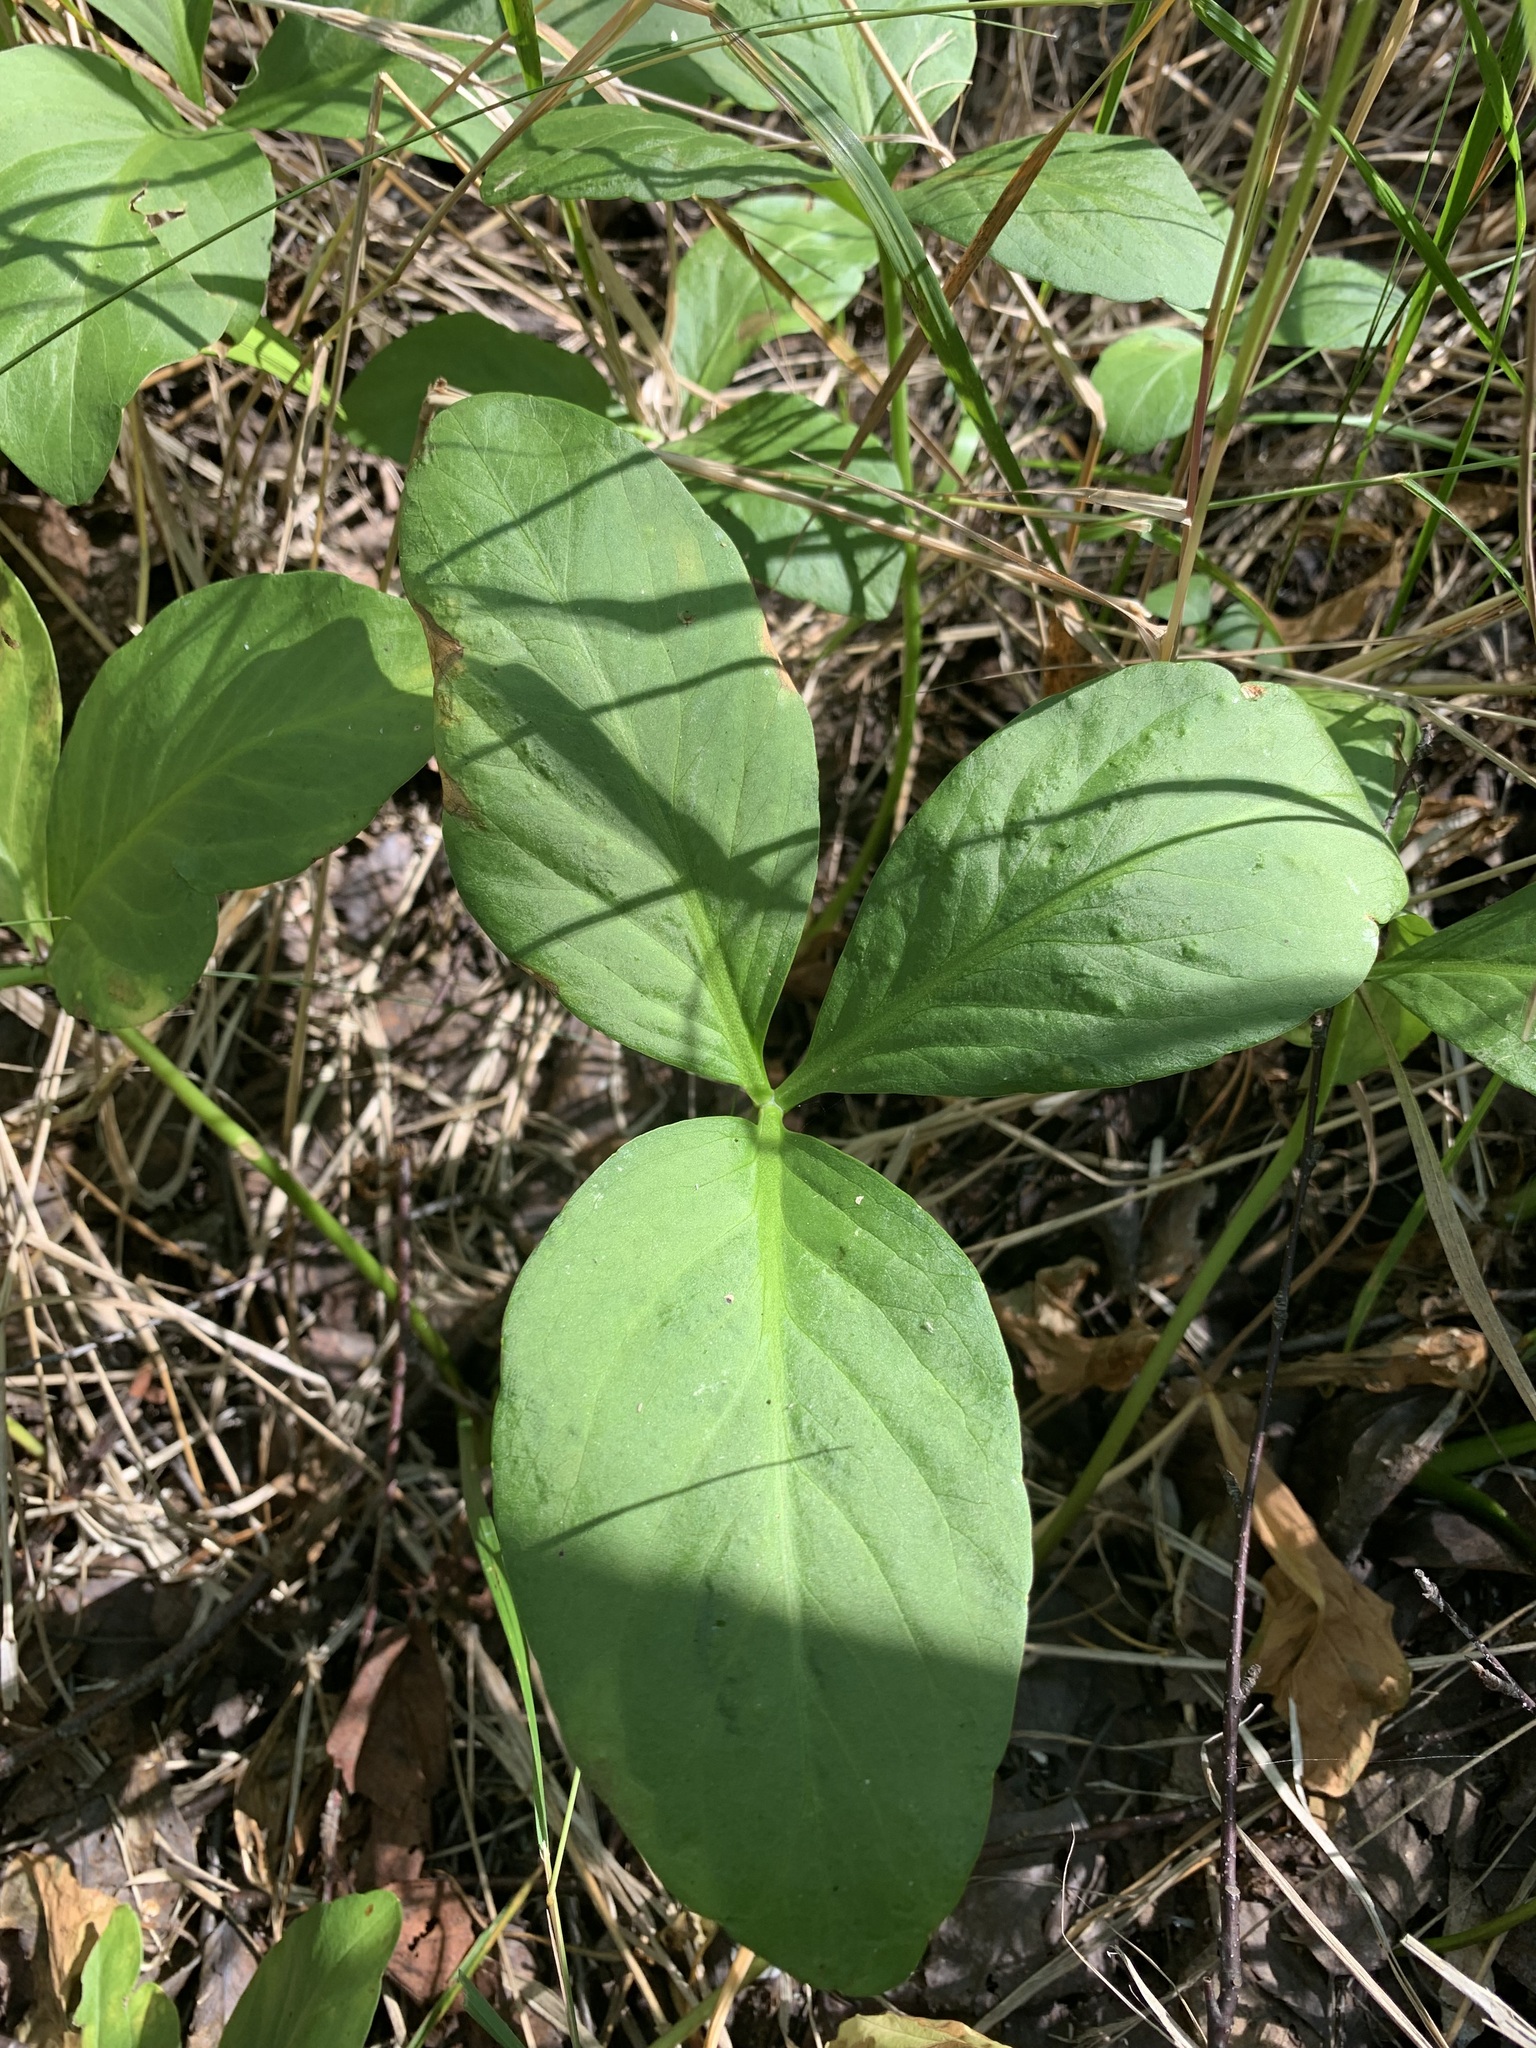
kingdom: Plantae
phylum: Tracheophyta
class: Magnoliopsida
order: Asterales
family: Menyanthaceae
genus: Menyanthes
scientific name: Menyanthes trifoliata
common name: Bogbean
